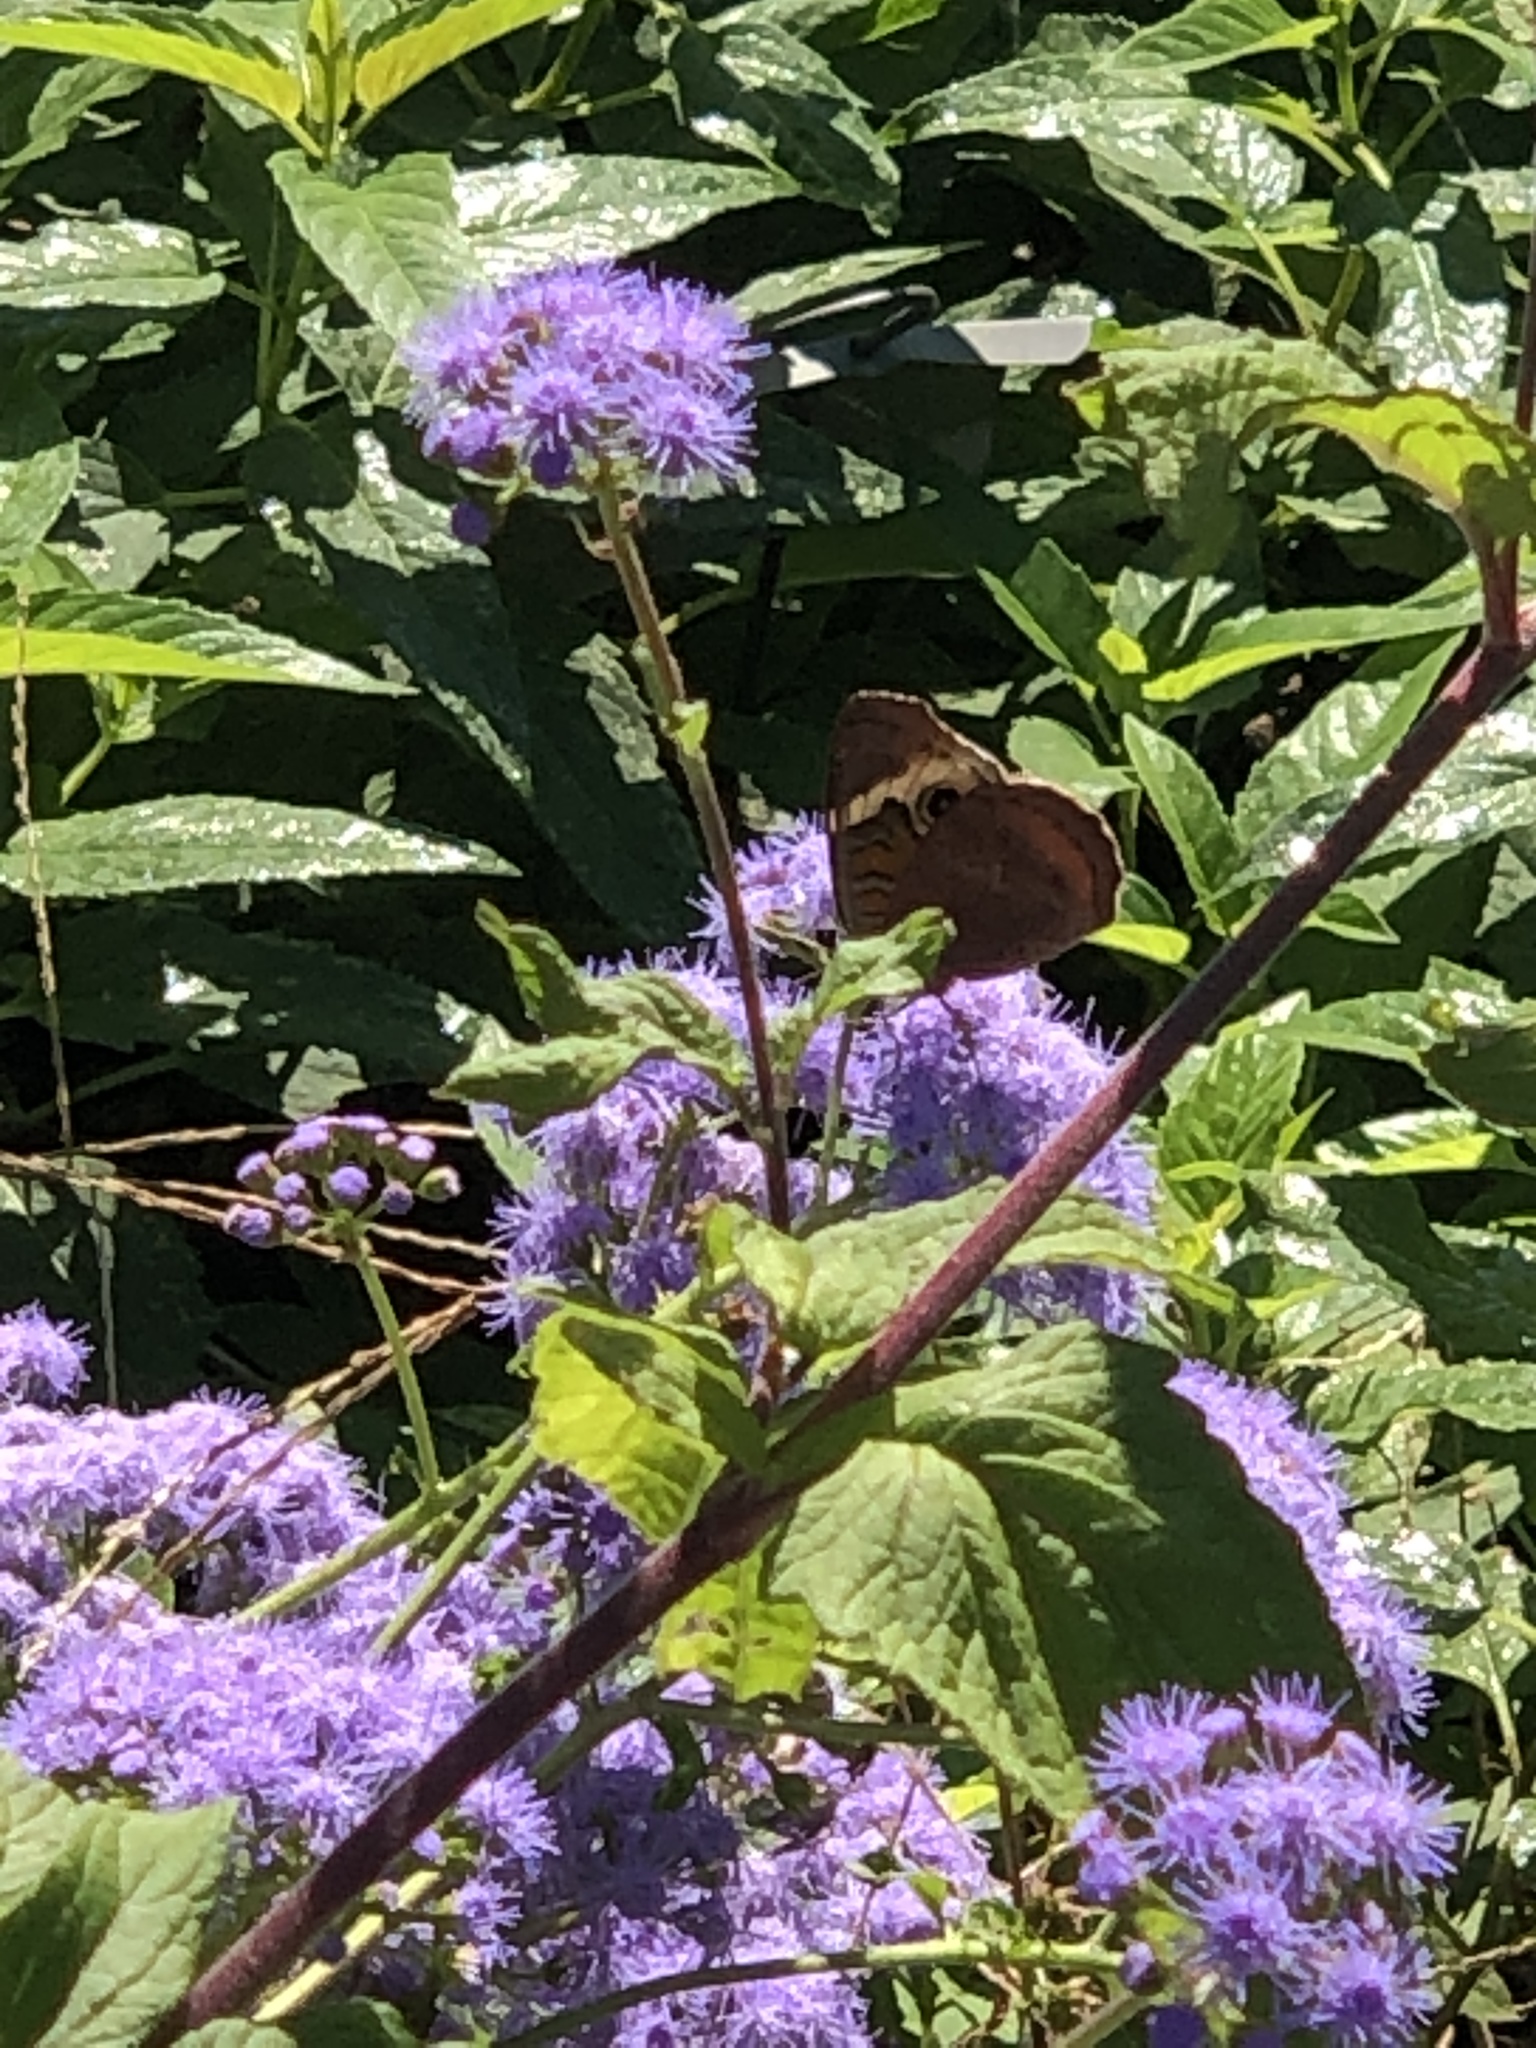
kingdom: Animalia
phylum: Arthropoda
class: Insecta
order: Lepidoptera
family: Nymphalidae
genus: Junonia
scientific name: Junonia coenia
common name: Common buckeye
